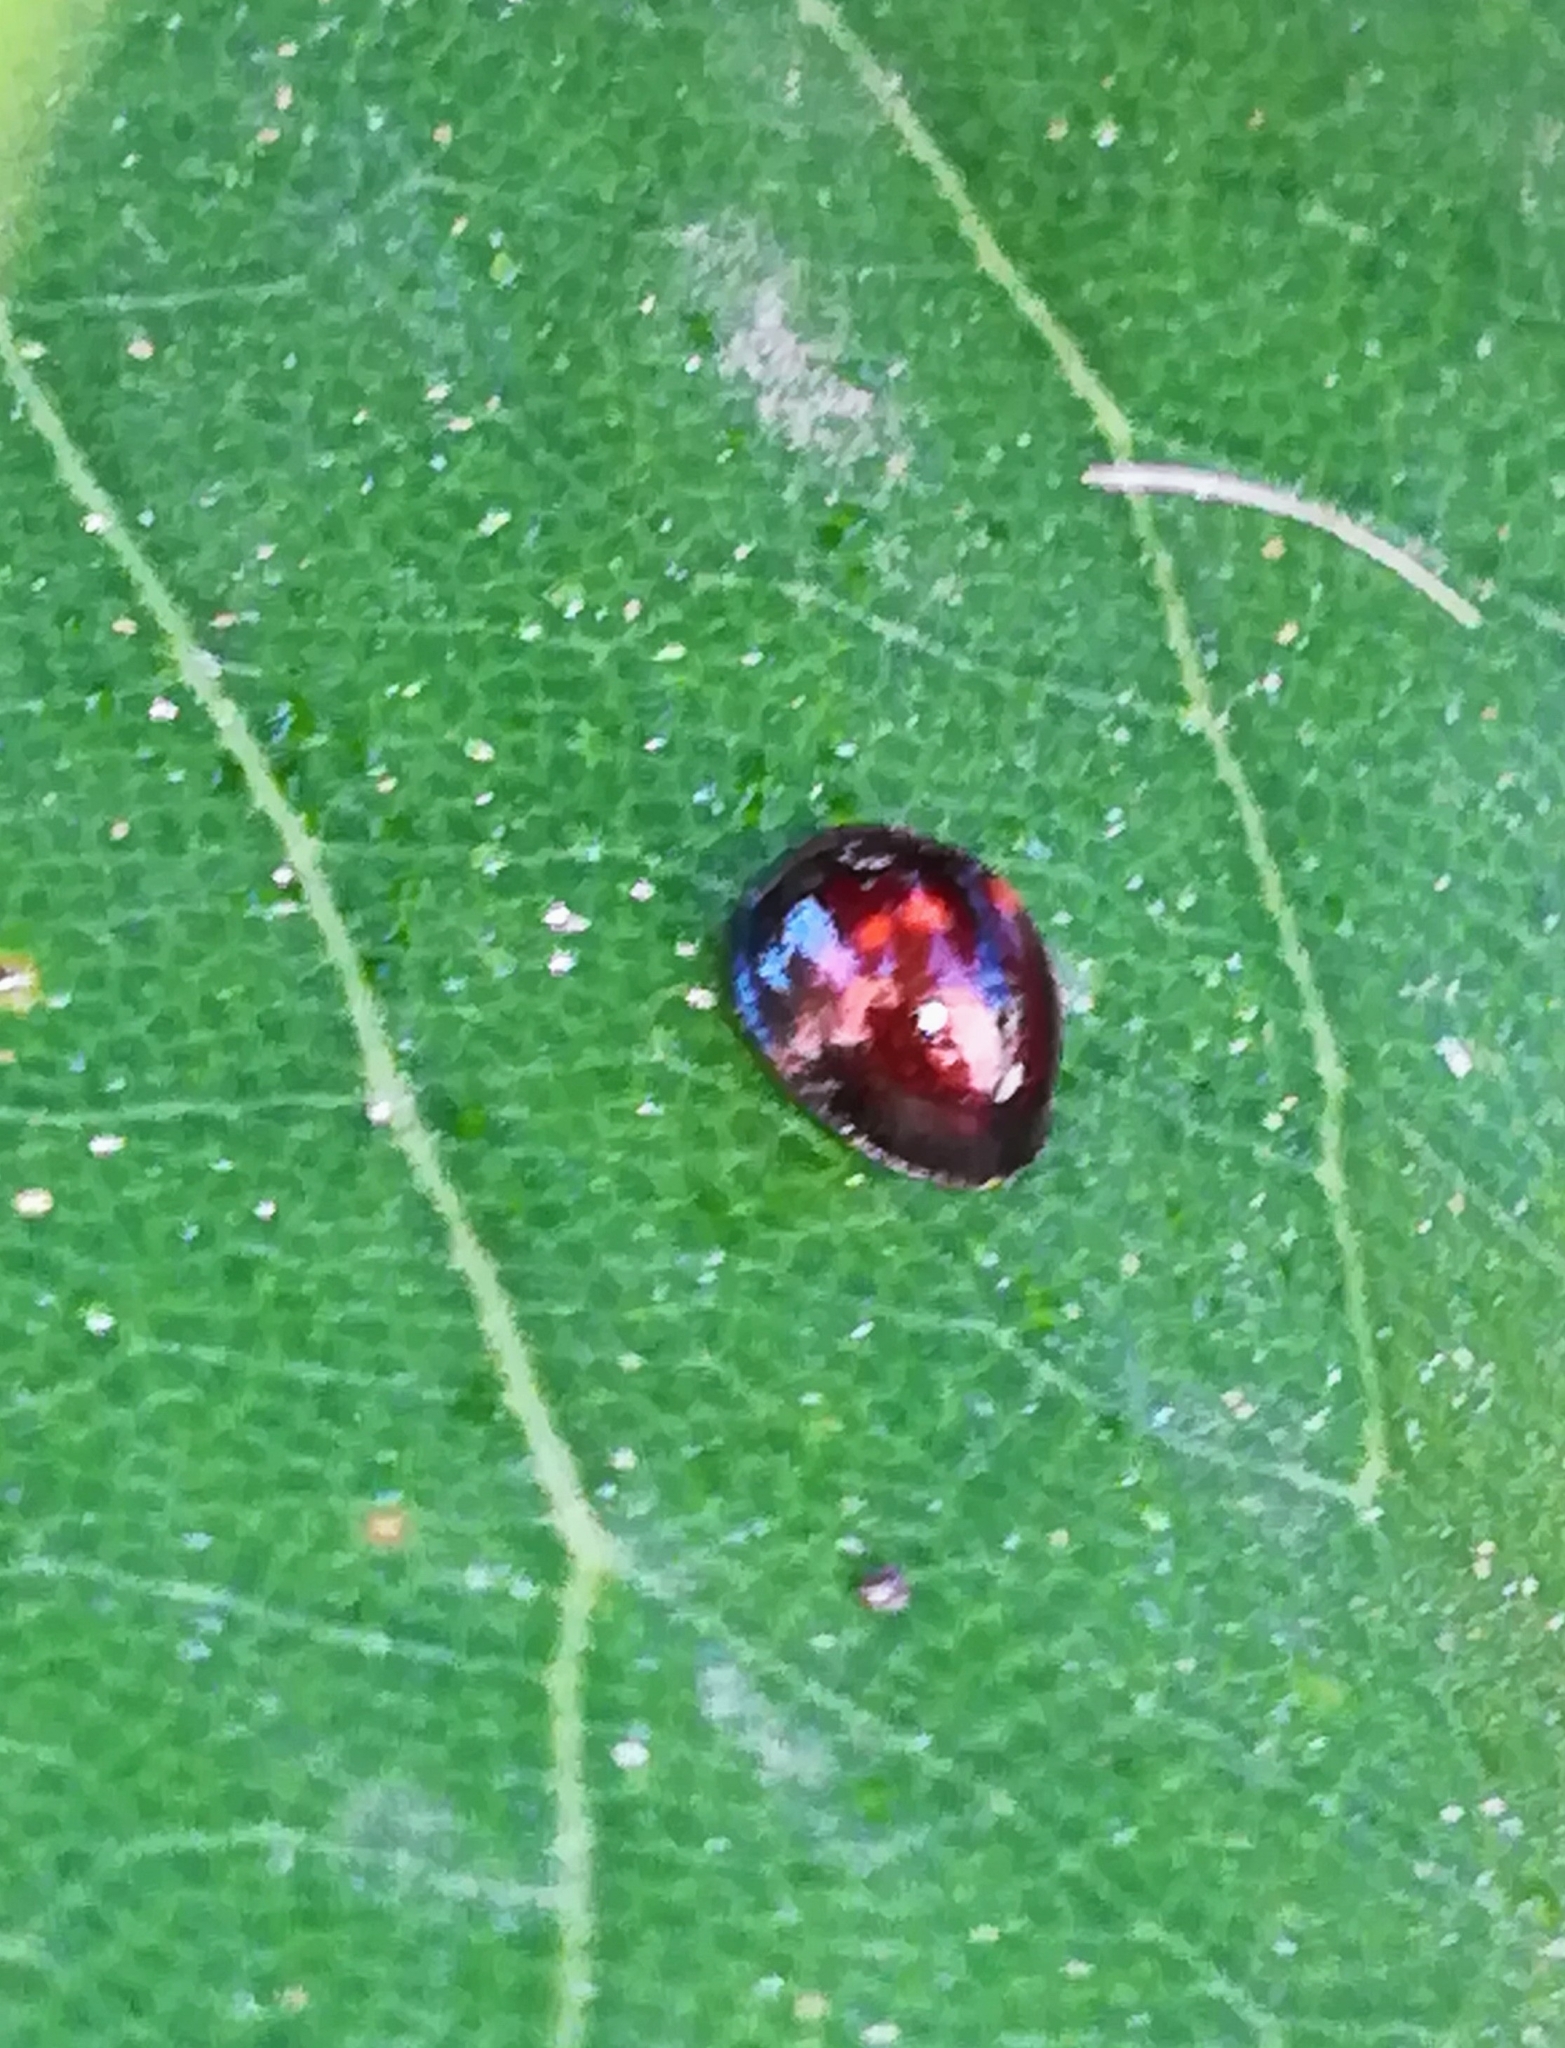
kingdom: Animalia
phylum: Arthropoda
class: Insecta
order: Coleoptera
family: Coccinellidae
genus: Chilocorus
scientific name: Chilocorus bipustulatus
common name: Heather ladybird
